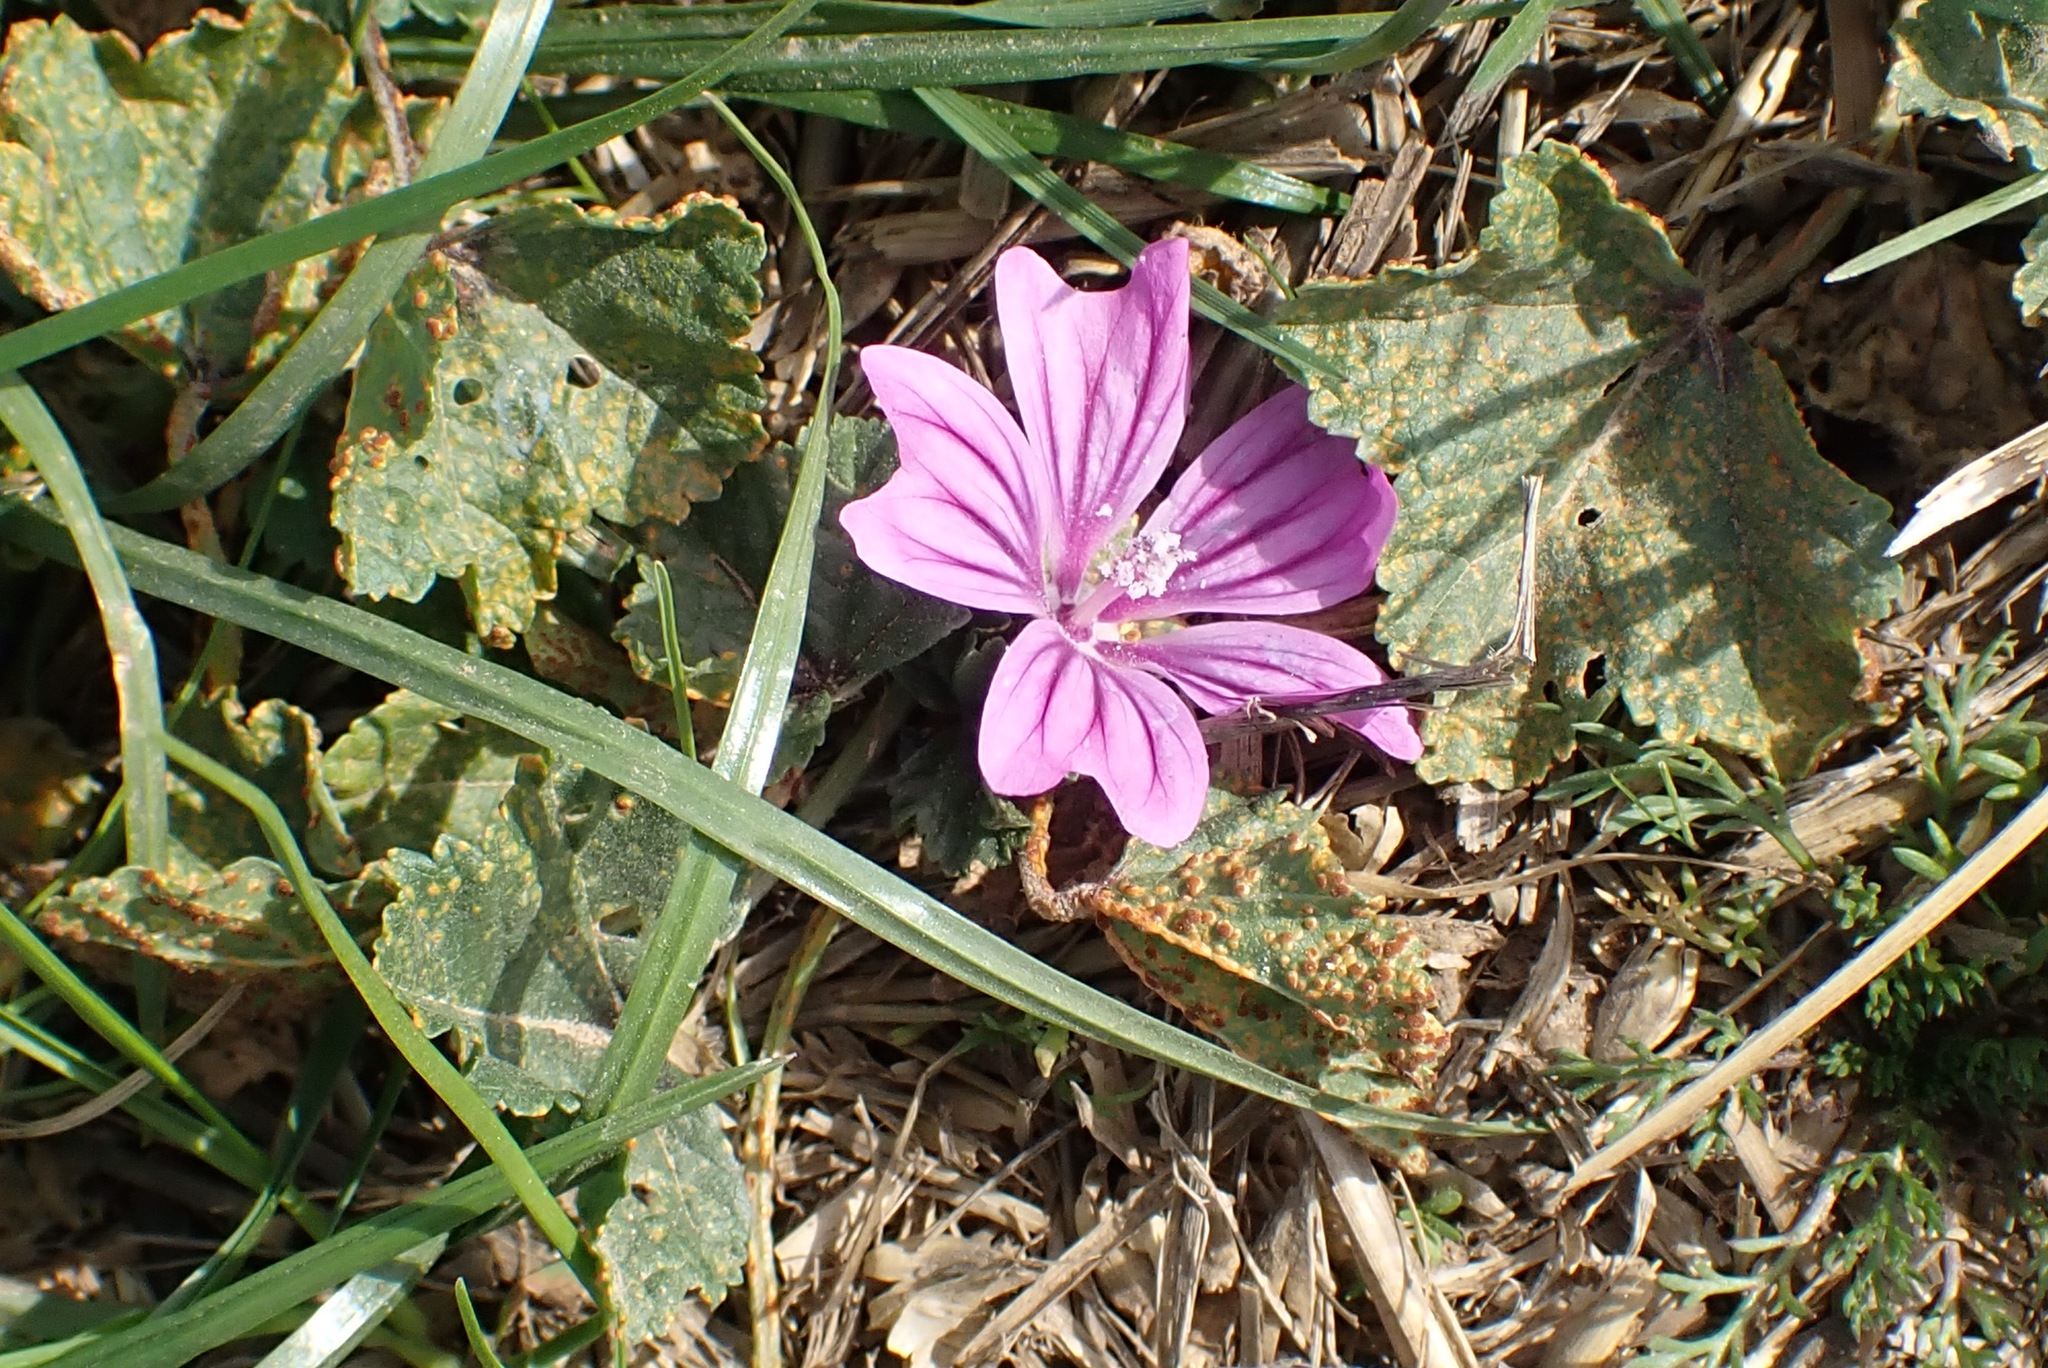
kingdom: Plantae
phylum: Tracheophyta
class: Magnoliopsida
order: Malvales
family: Malvaceae
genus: Malva
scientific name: Malva sylvestris
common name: Common mallow
